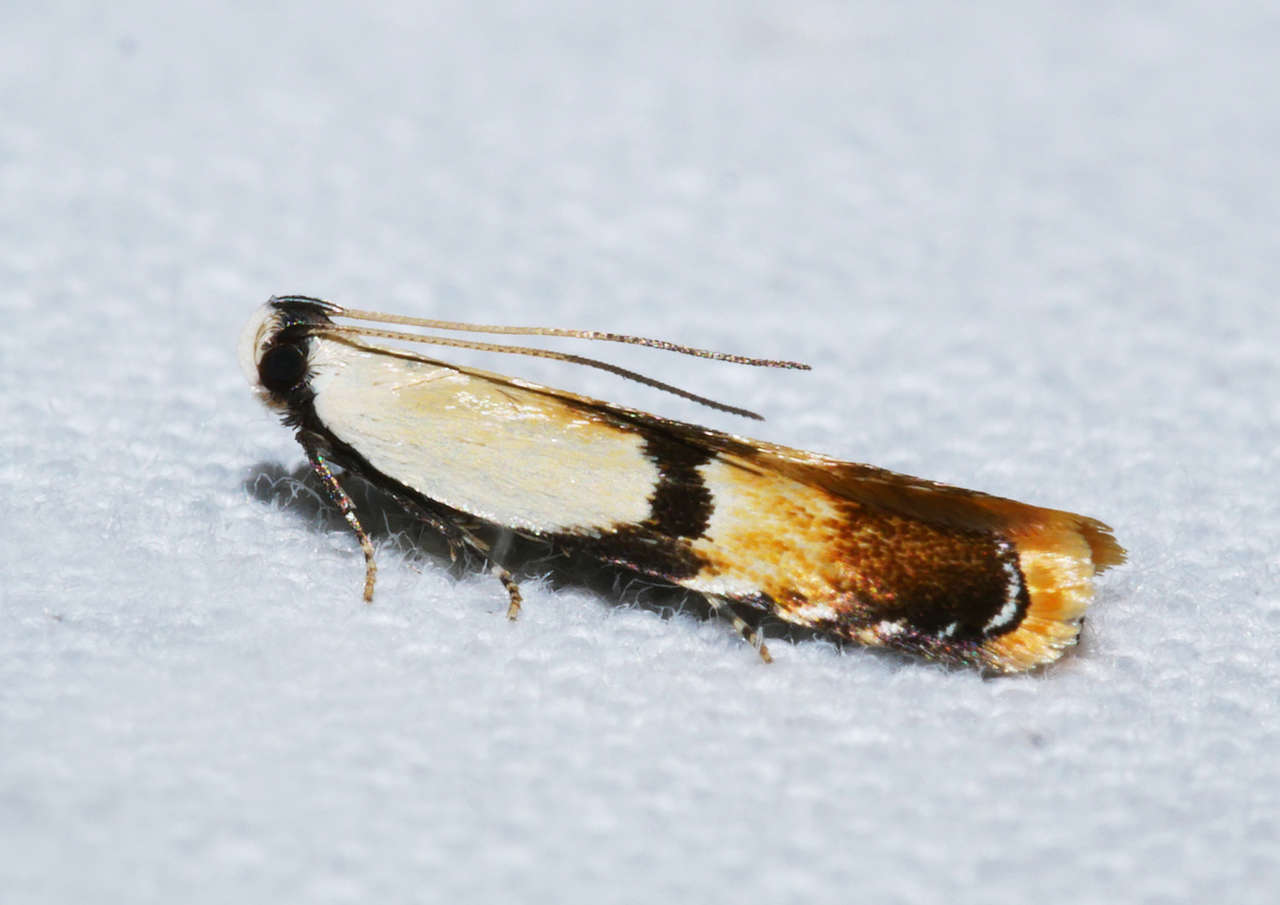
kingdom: Animalia
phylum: Arthropoda
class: Insecta
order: Lepidoptera
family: Gelechiidae
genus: Ardozyga
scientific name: Ardozyga desmatra
